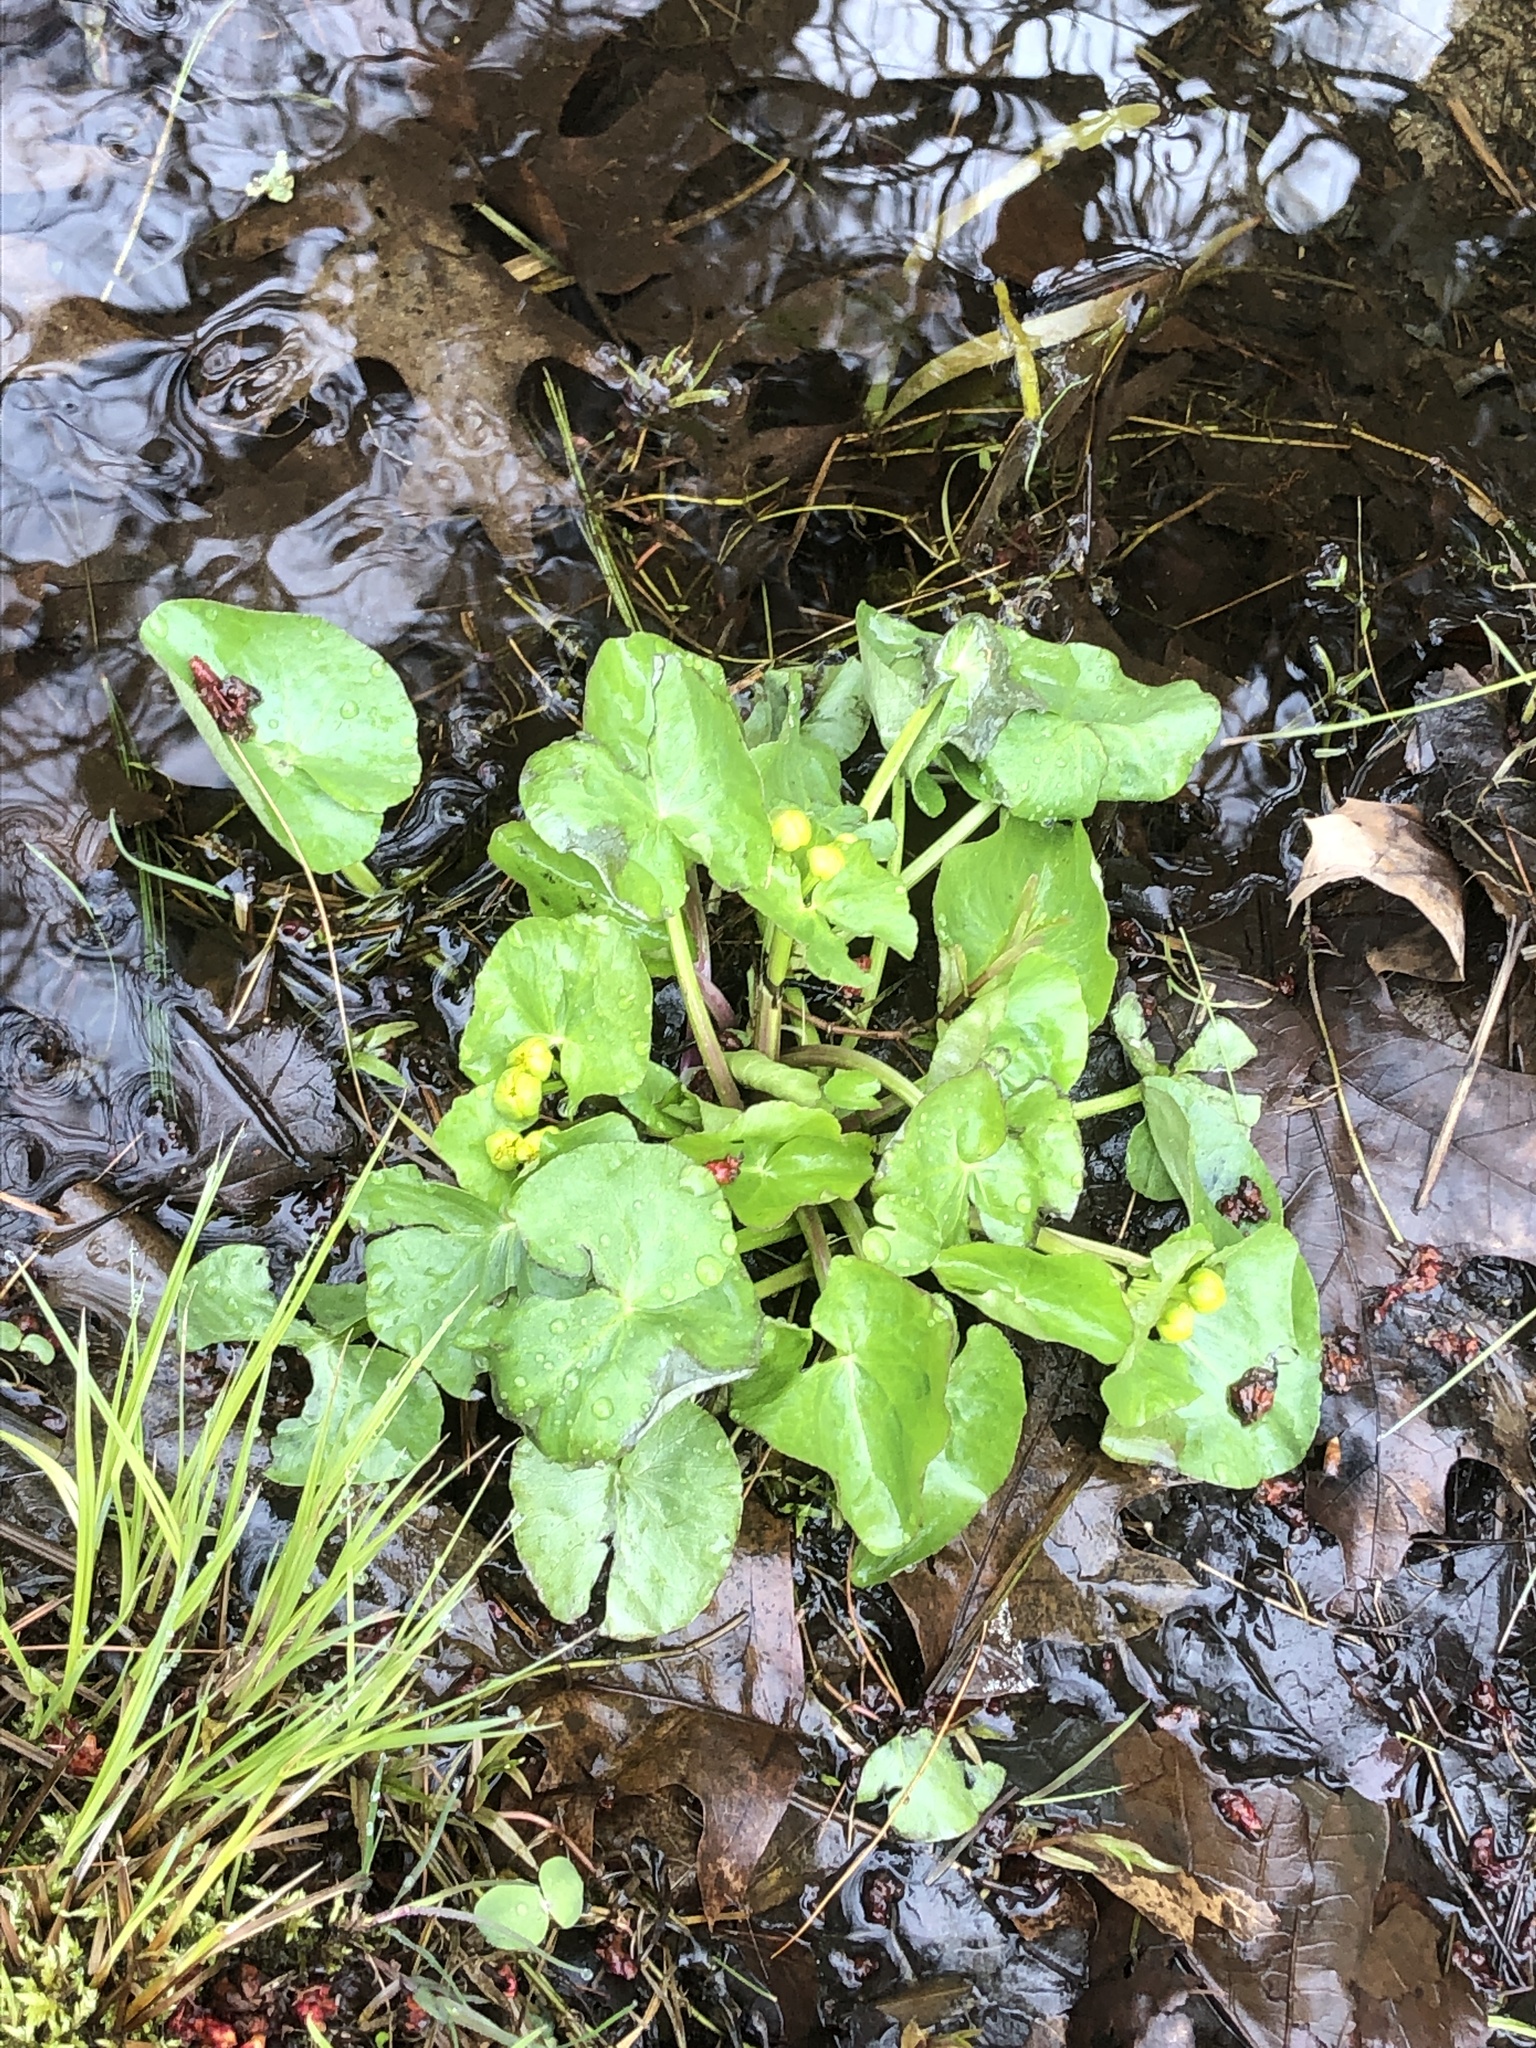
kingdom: Plantae
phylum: Tracheophyta
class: Magnoliopsida
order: Ranunculales
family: Ranunculaceae
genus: Caltha
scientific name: Caltha palustris
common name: Marsh marigold
